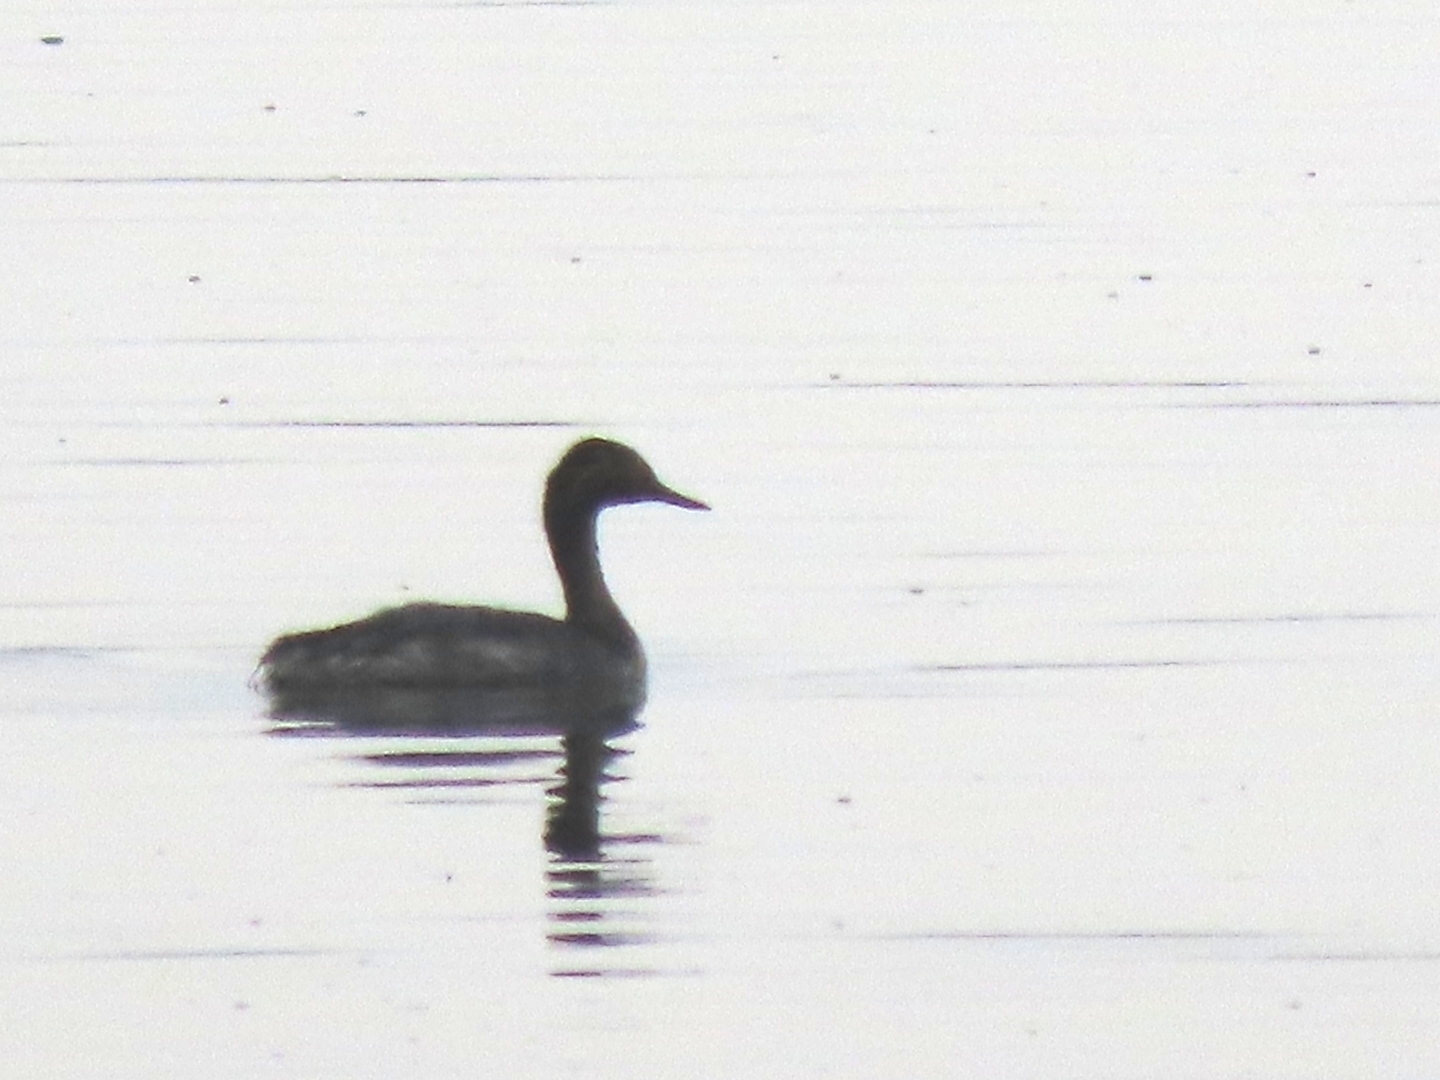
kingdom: Animalia
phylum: Chordata
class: Aves
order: Podicipediformes
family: Podicipedidae
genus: Podiceps
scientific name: Podiceps nigricollis
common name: Black-necked grebe
